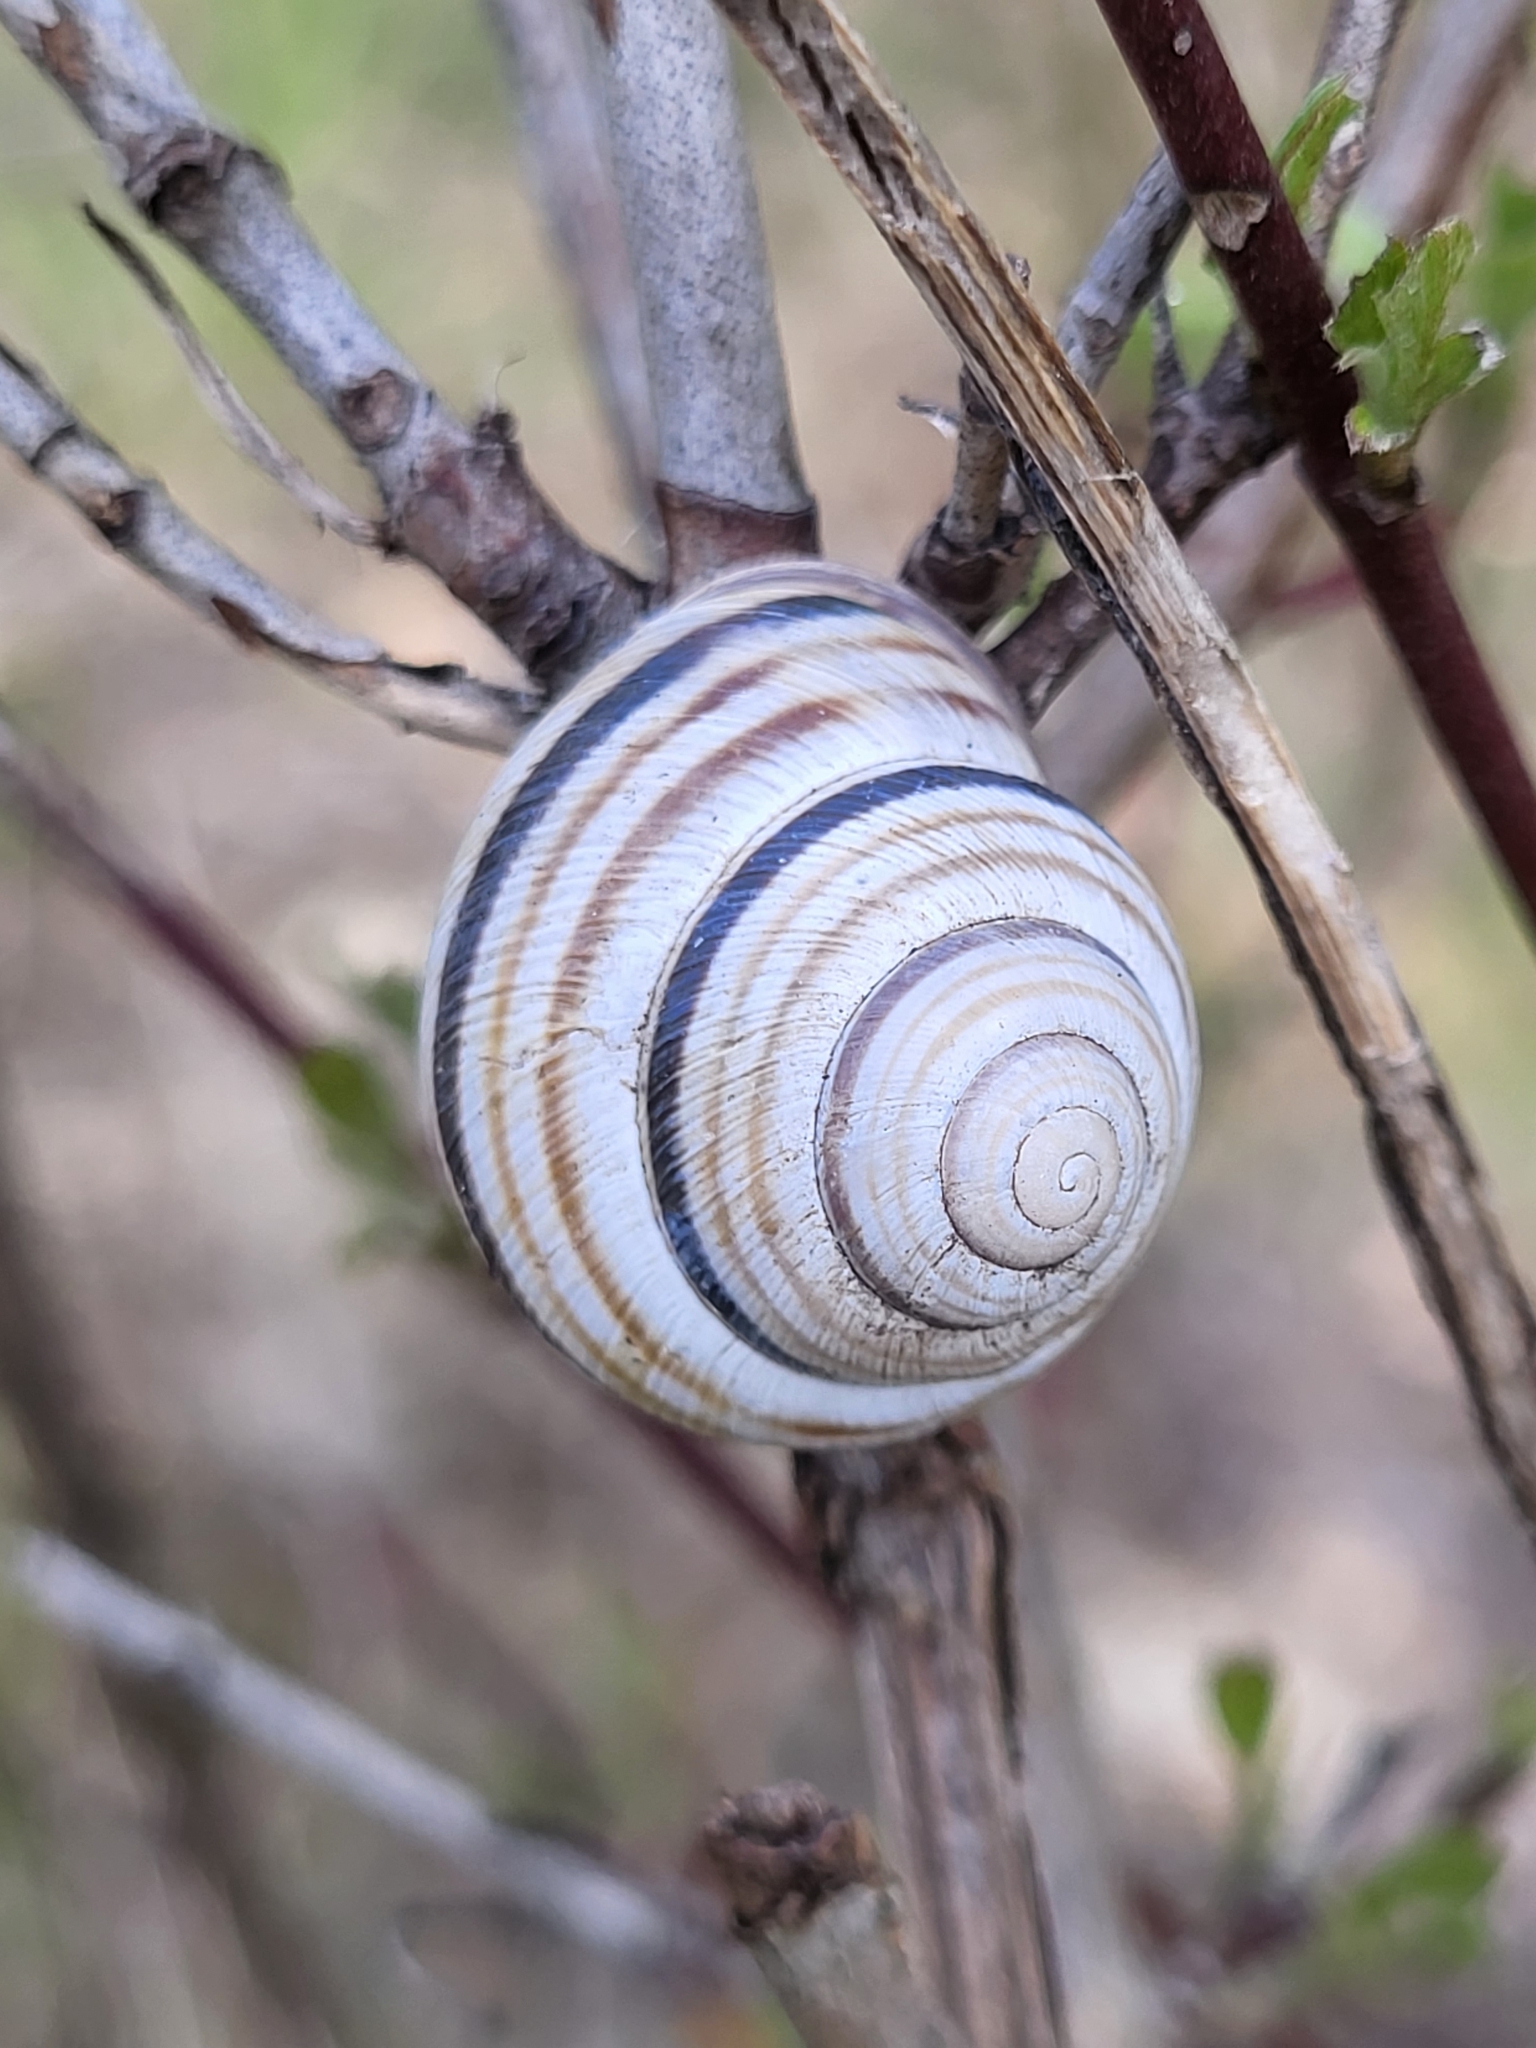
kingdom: Animalia
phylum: Mollusca
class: Gastropoda
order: Stylommatophora
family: Helicidae
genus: Caucasotachea
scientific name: Caucasotachea vindobonensis
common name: European helicid land snail
